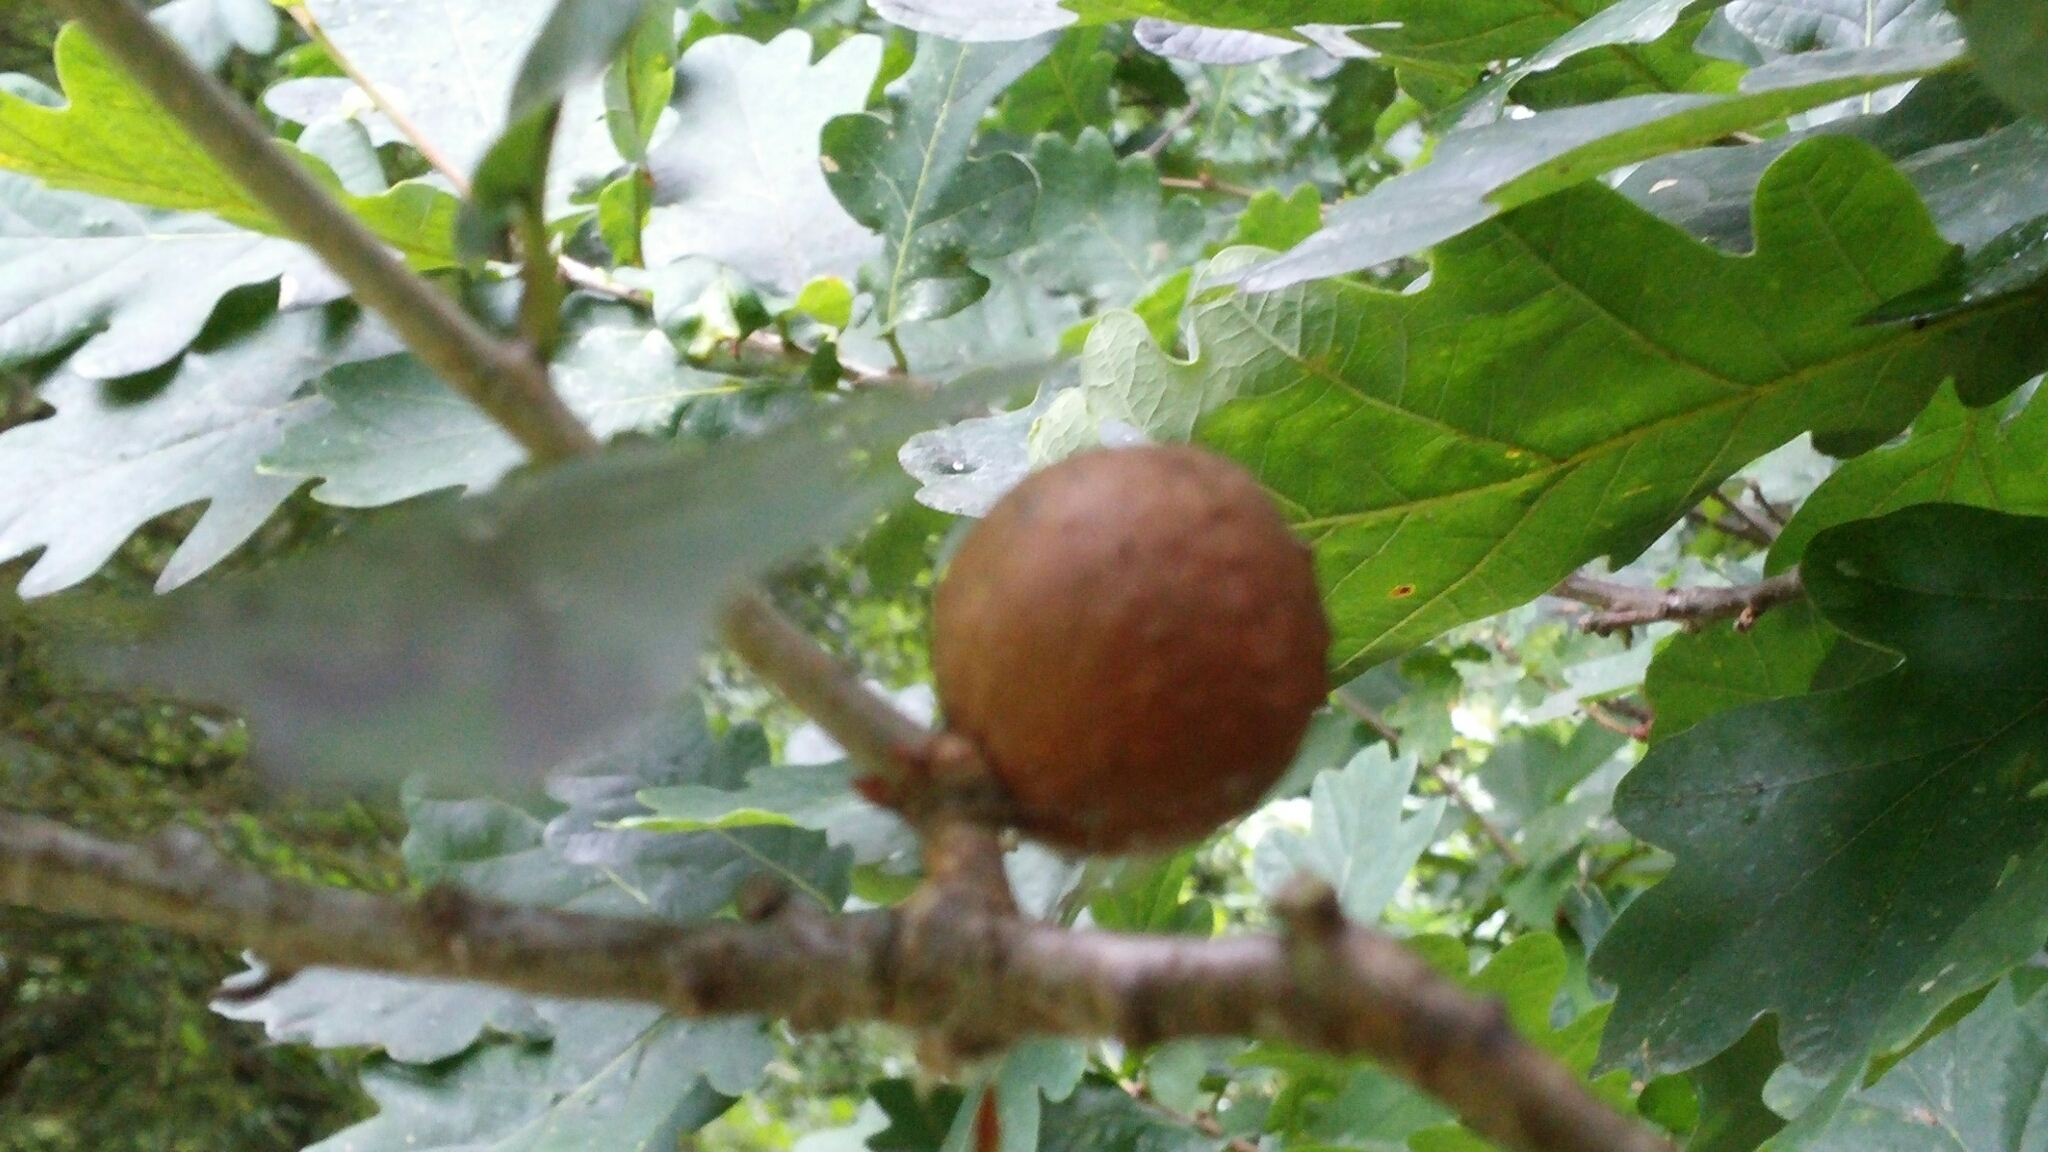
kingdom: Animalia
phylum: Arthropoda
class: Insecta
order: Hymenoptera
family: Cynipidae
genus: Andricus
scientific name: Andricus kollari
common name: Marble gall
